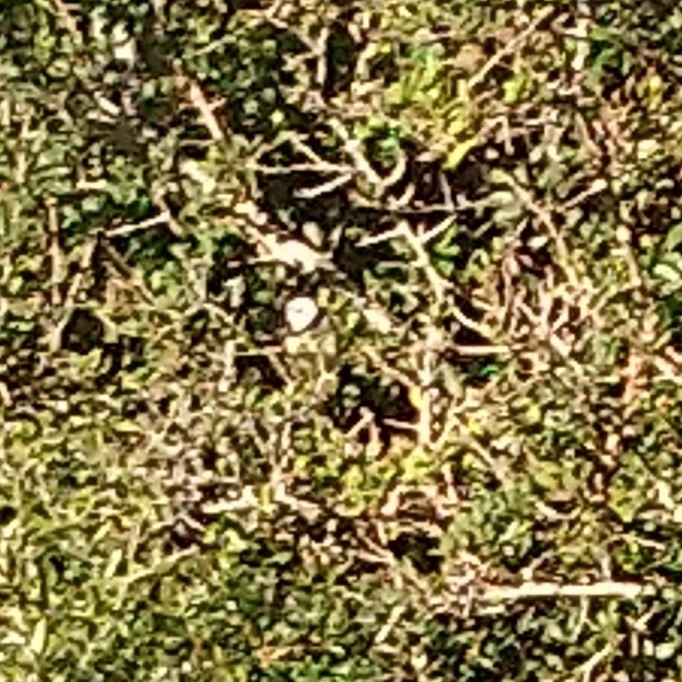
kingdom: Animalia
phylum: Chordata
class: Aves
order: Passeriformes
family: Cisticolidae
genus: Apalis
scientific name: Apalis thoracica
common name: Bar-throated apalis
